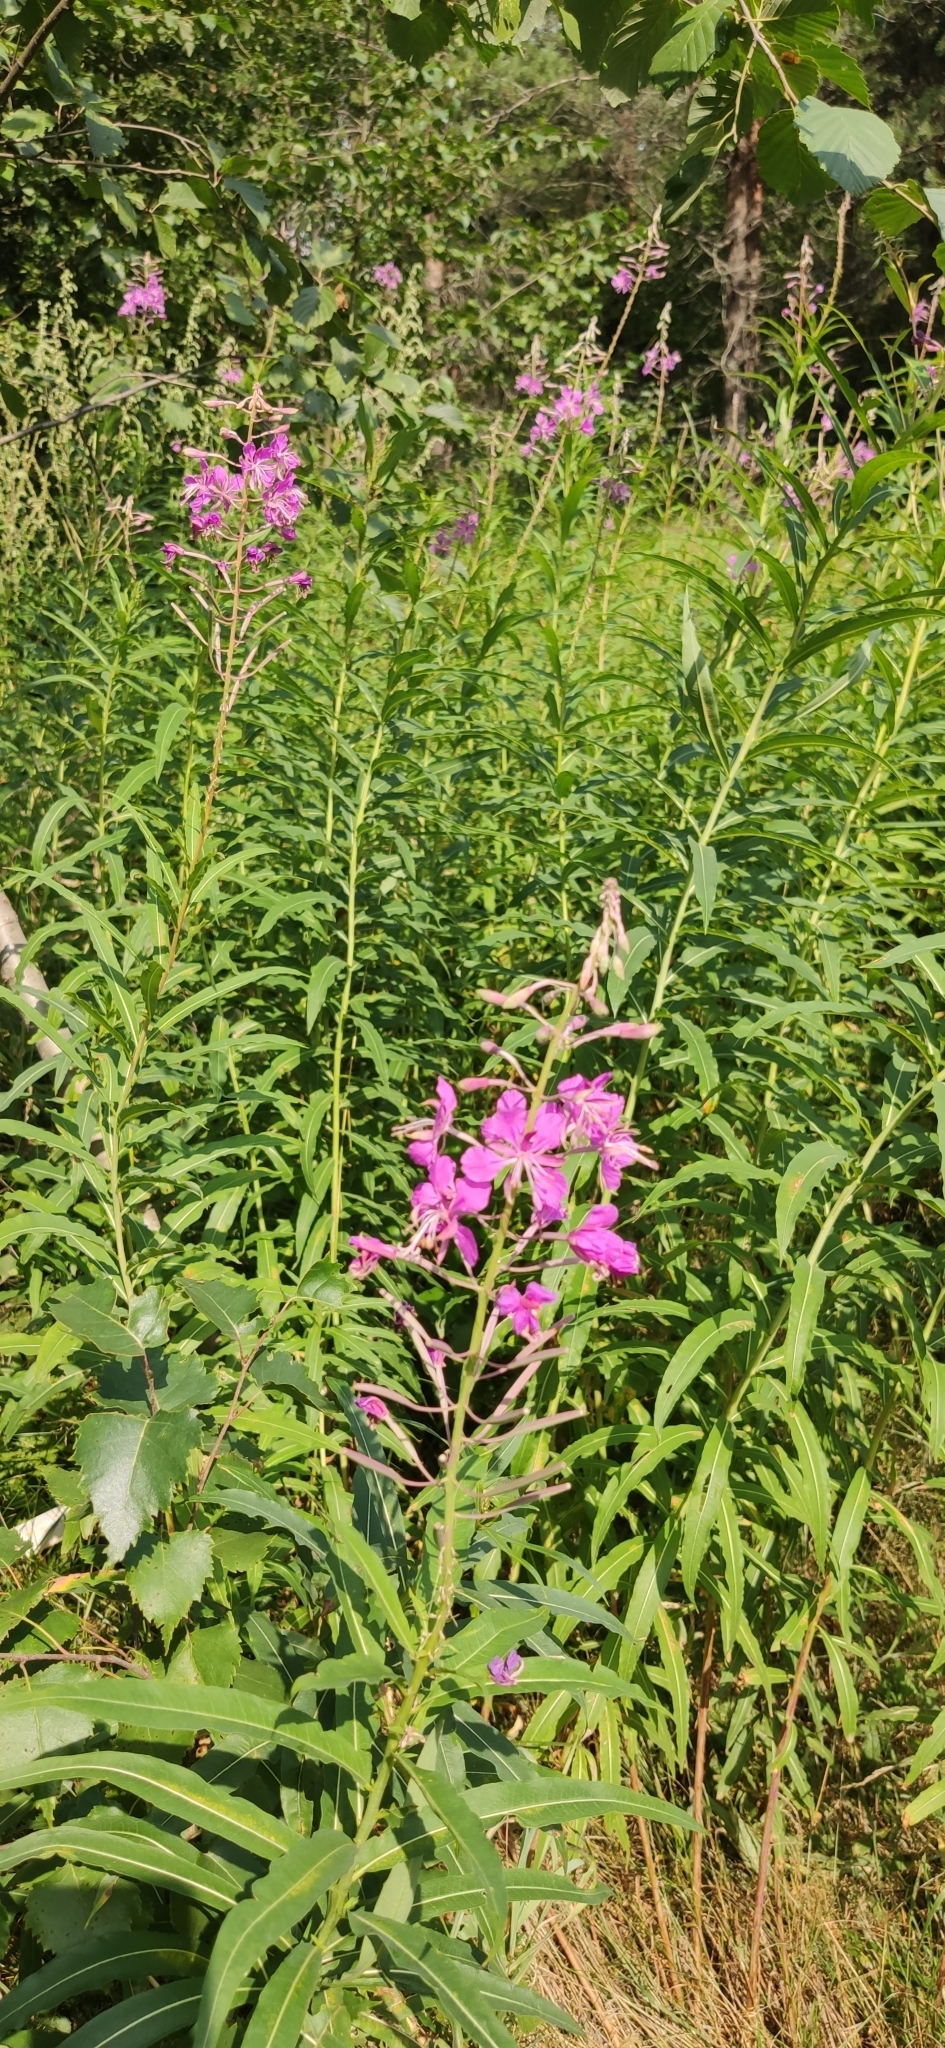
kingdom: Plantae
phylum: Tracheophyta
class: Magnoliopsida
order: Myrtales
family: Onagraceae
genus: Chamaenerion
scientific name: Chamaenerion angustifolium
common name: Fireweed
